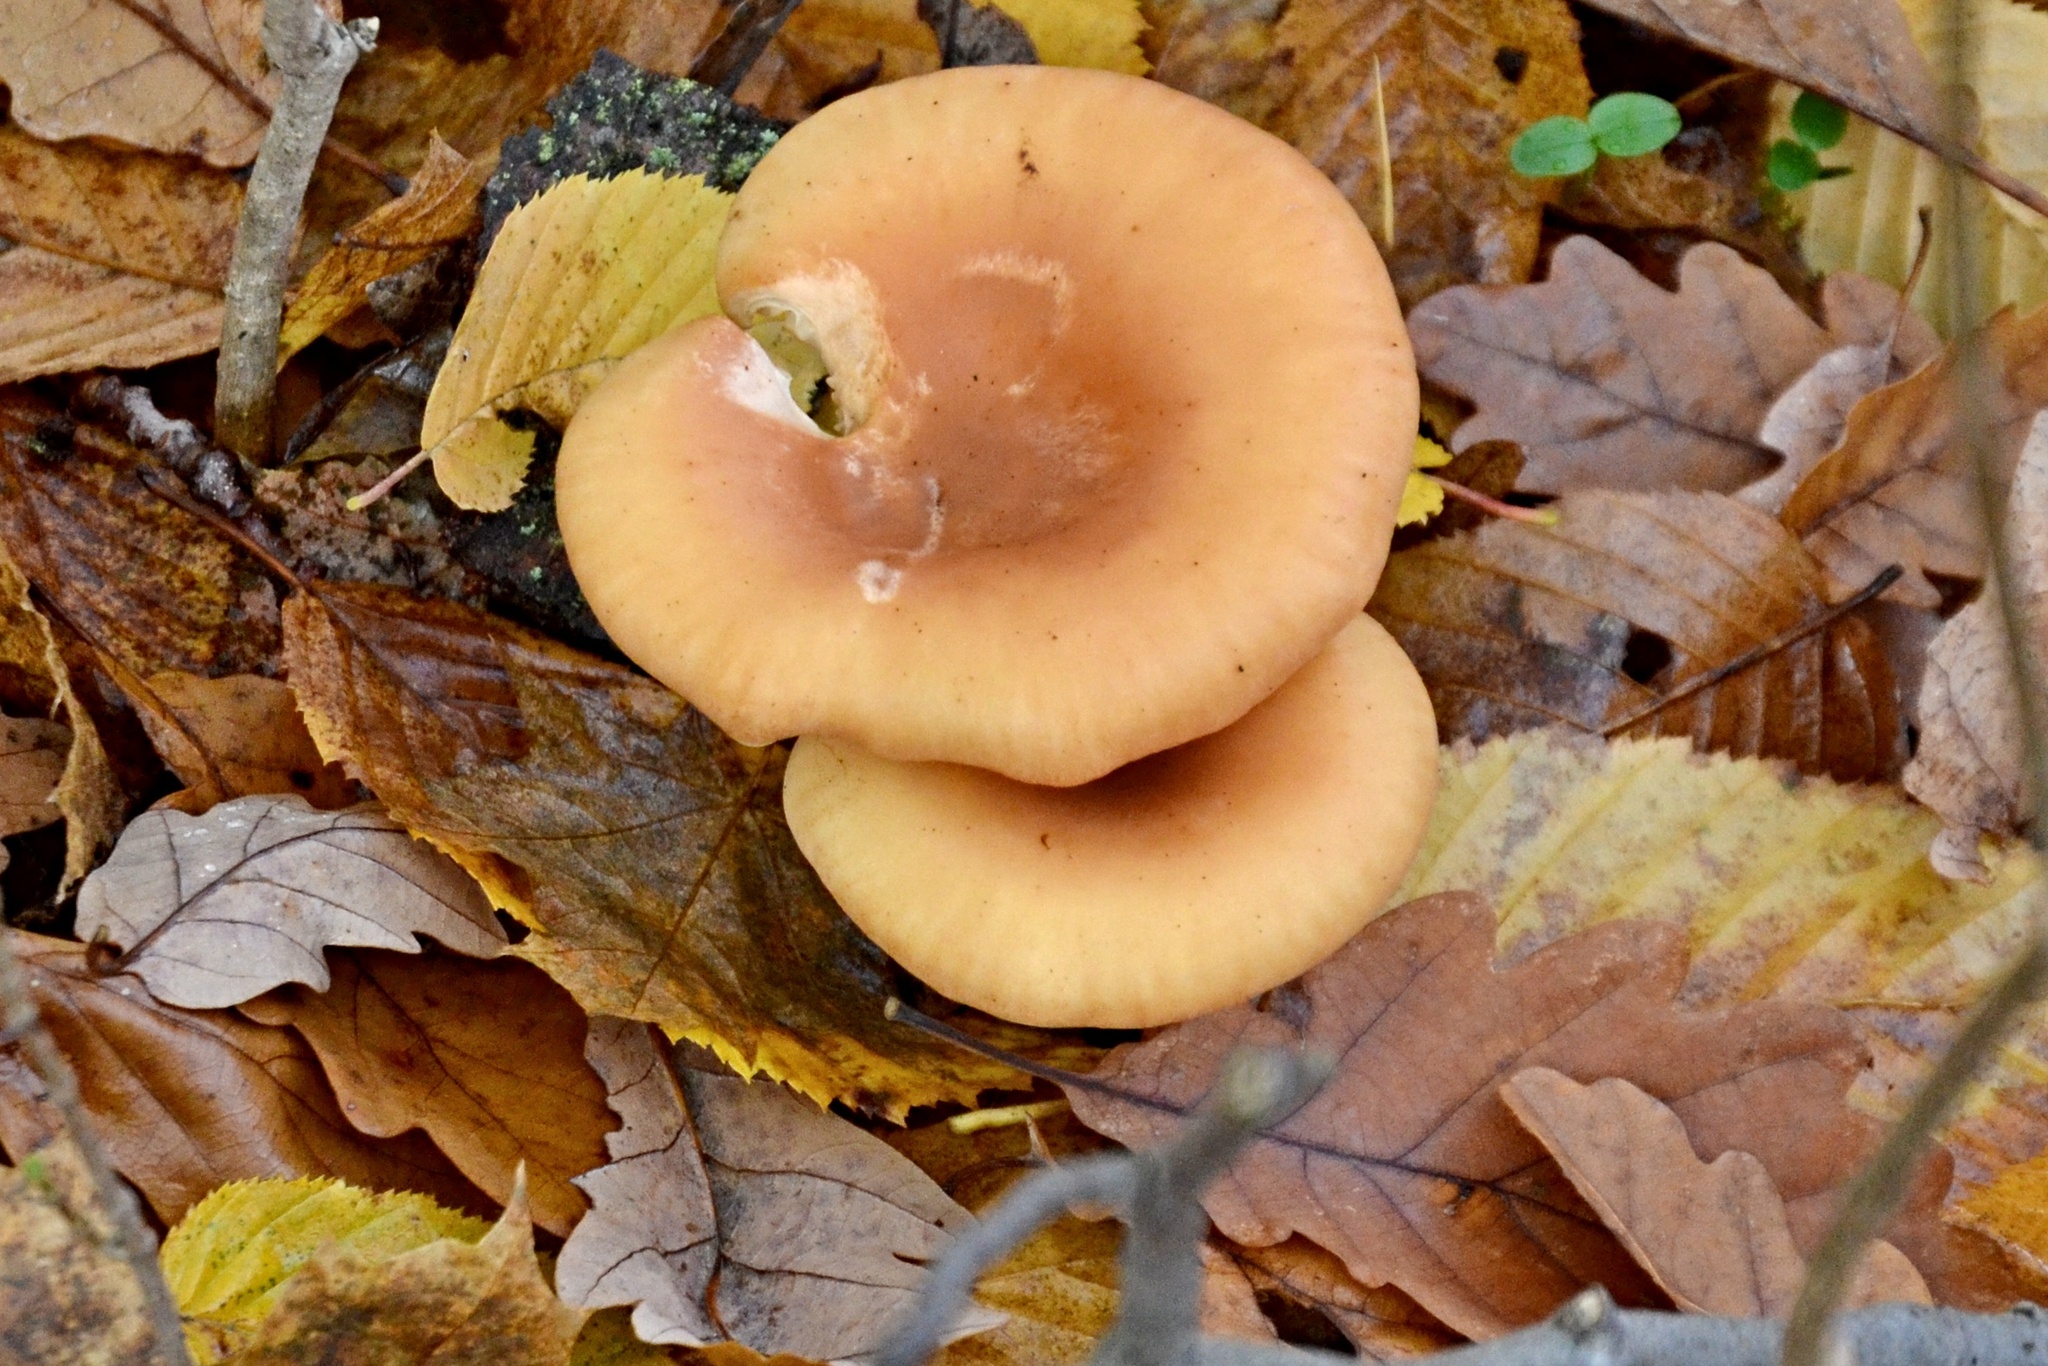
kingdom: Fungi
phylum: Basidiomycota
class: Agaricomycetes
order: Agaricales
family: Tricholomataceae
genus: Paralepista
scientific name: Paralepista flaccida
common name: Tawny funnel cap
